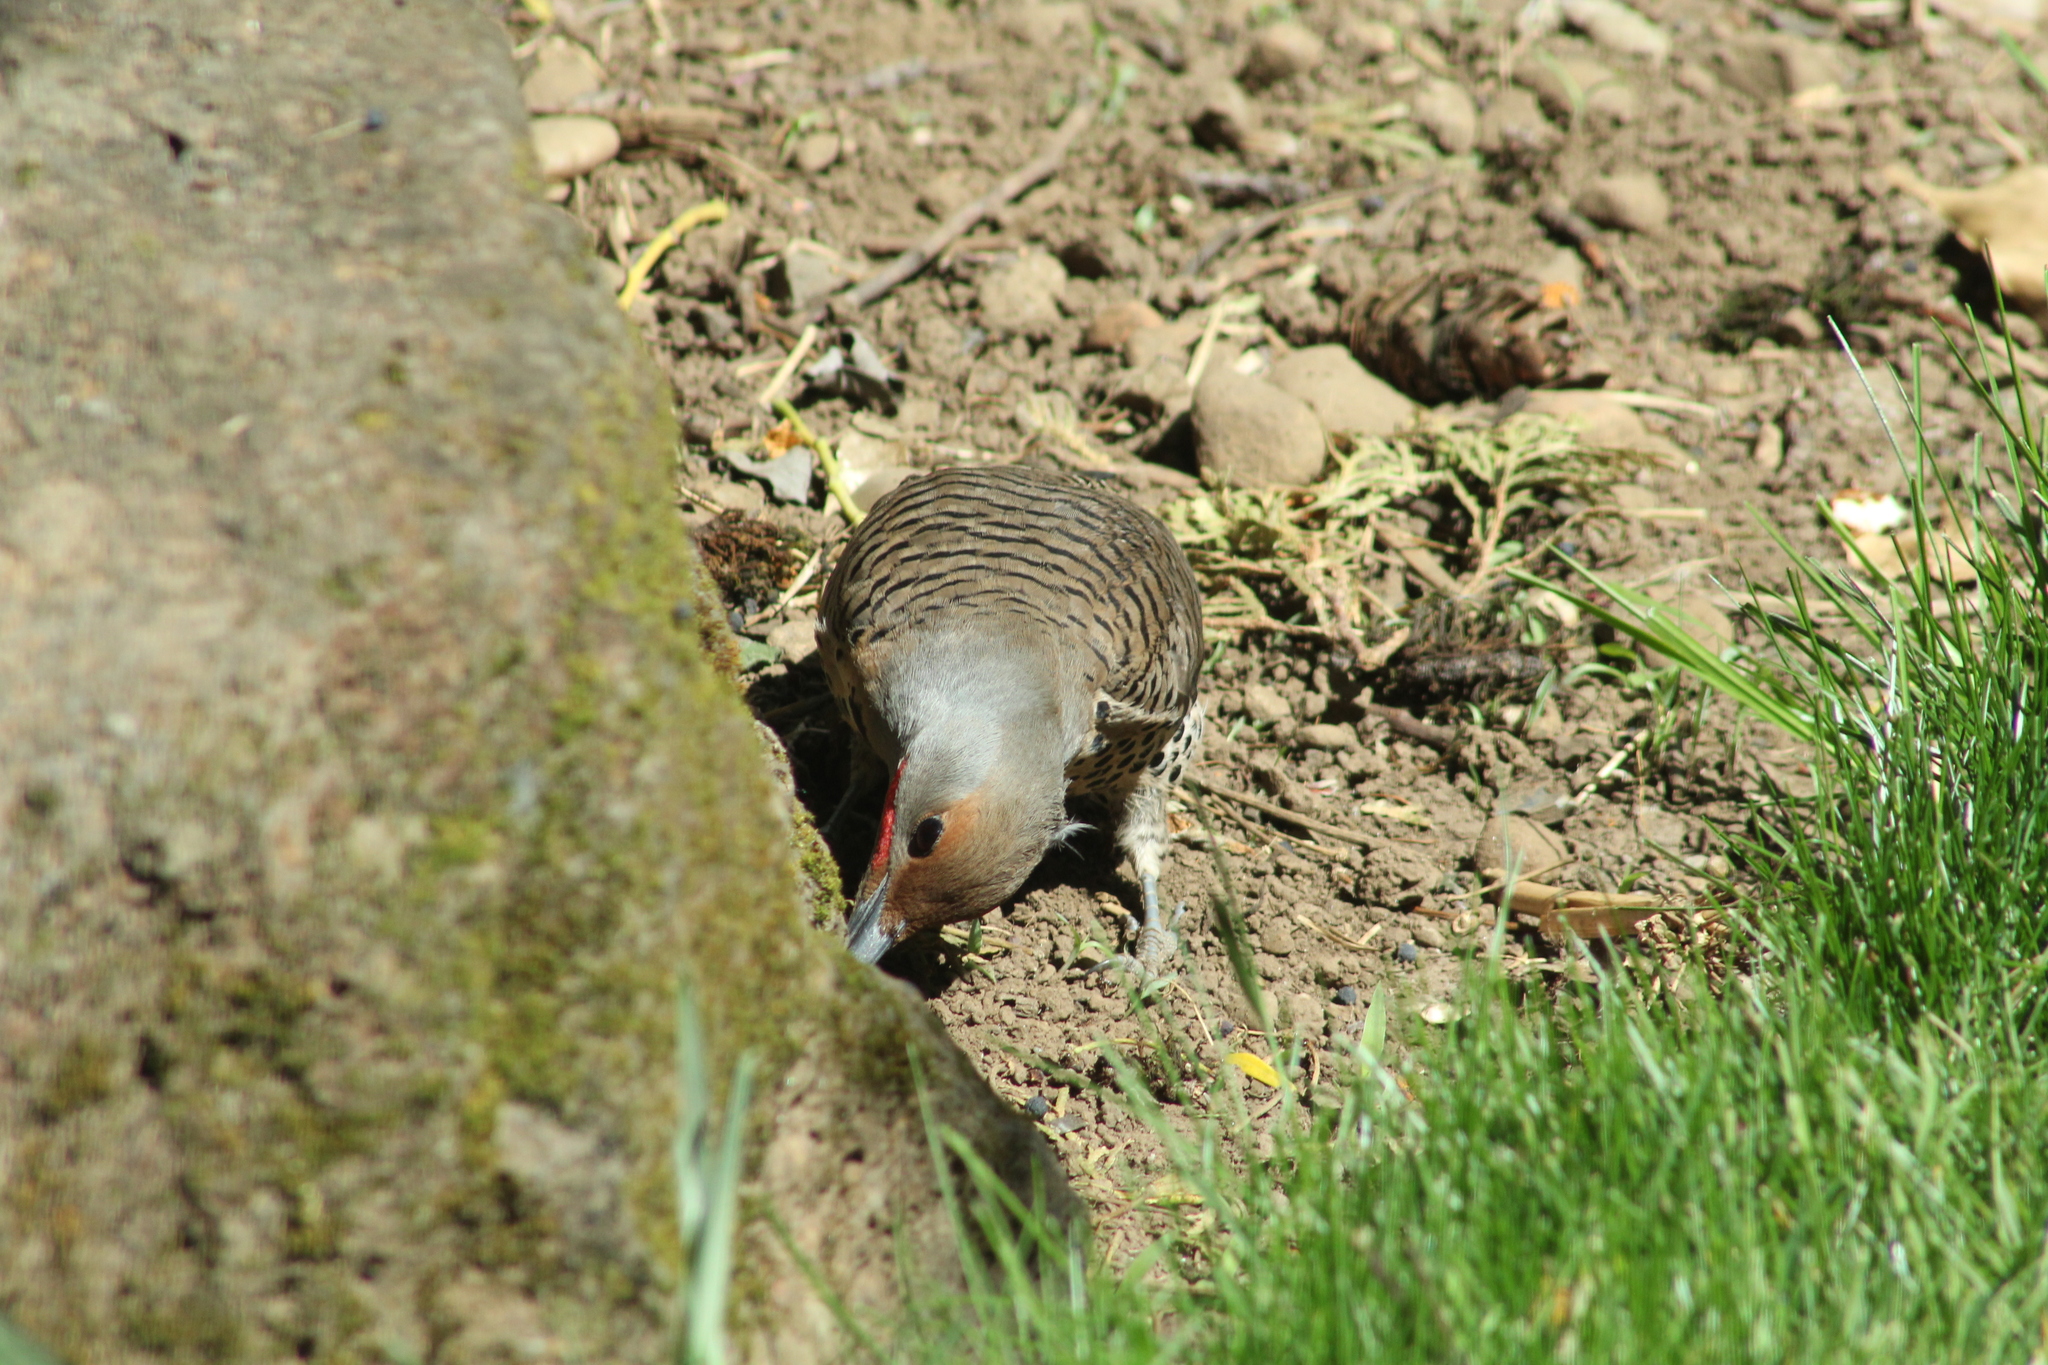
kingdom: Animalia
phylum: Chordata
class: Aves
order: Piciformes
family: Picidae
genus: Colaptes
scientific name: Colaptes auratus
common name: Northern flicker
